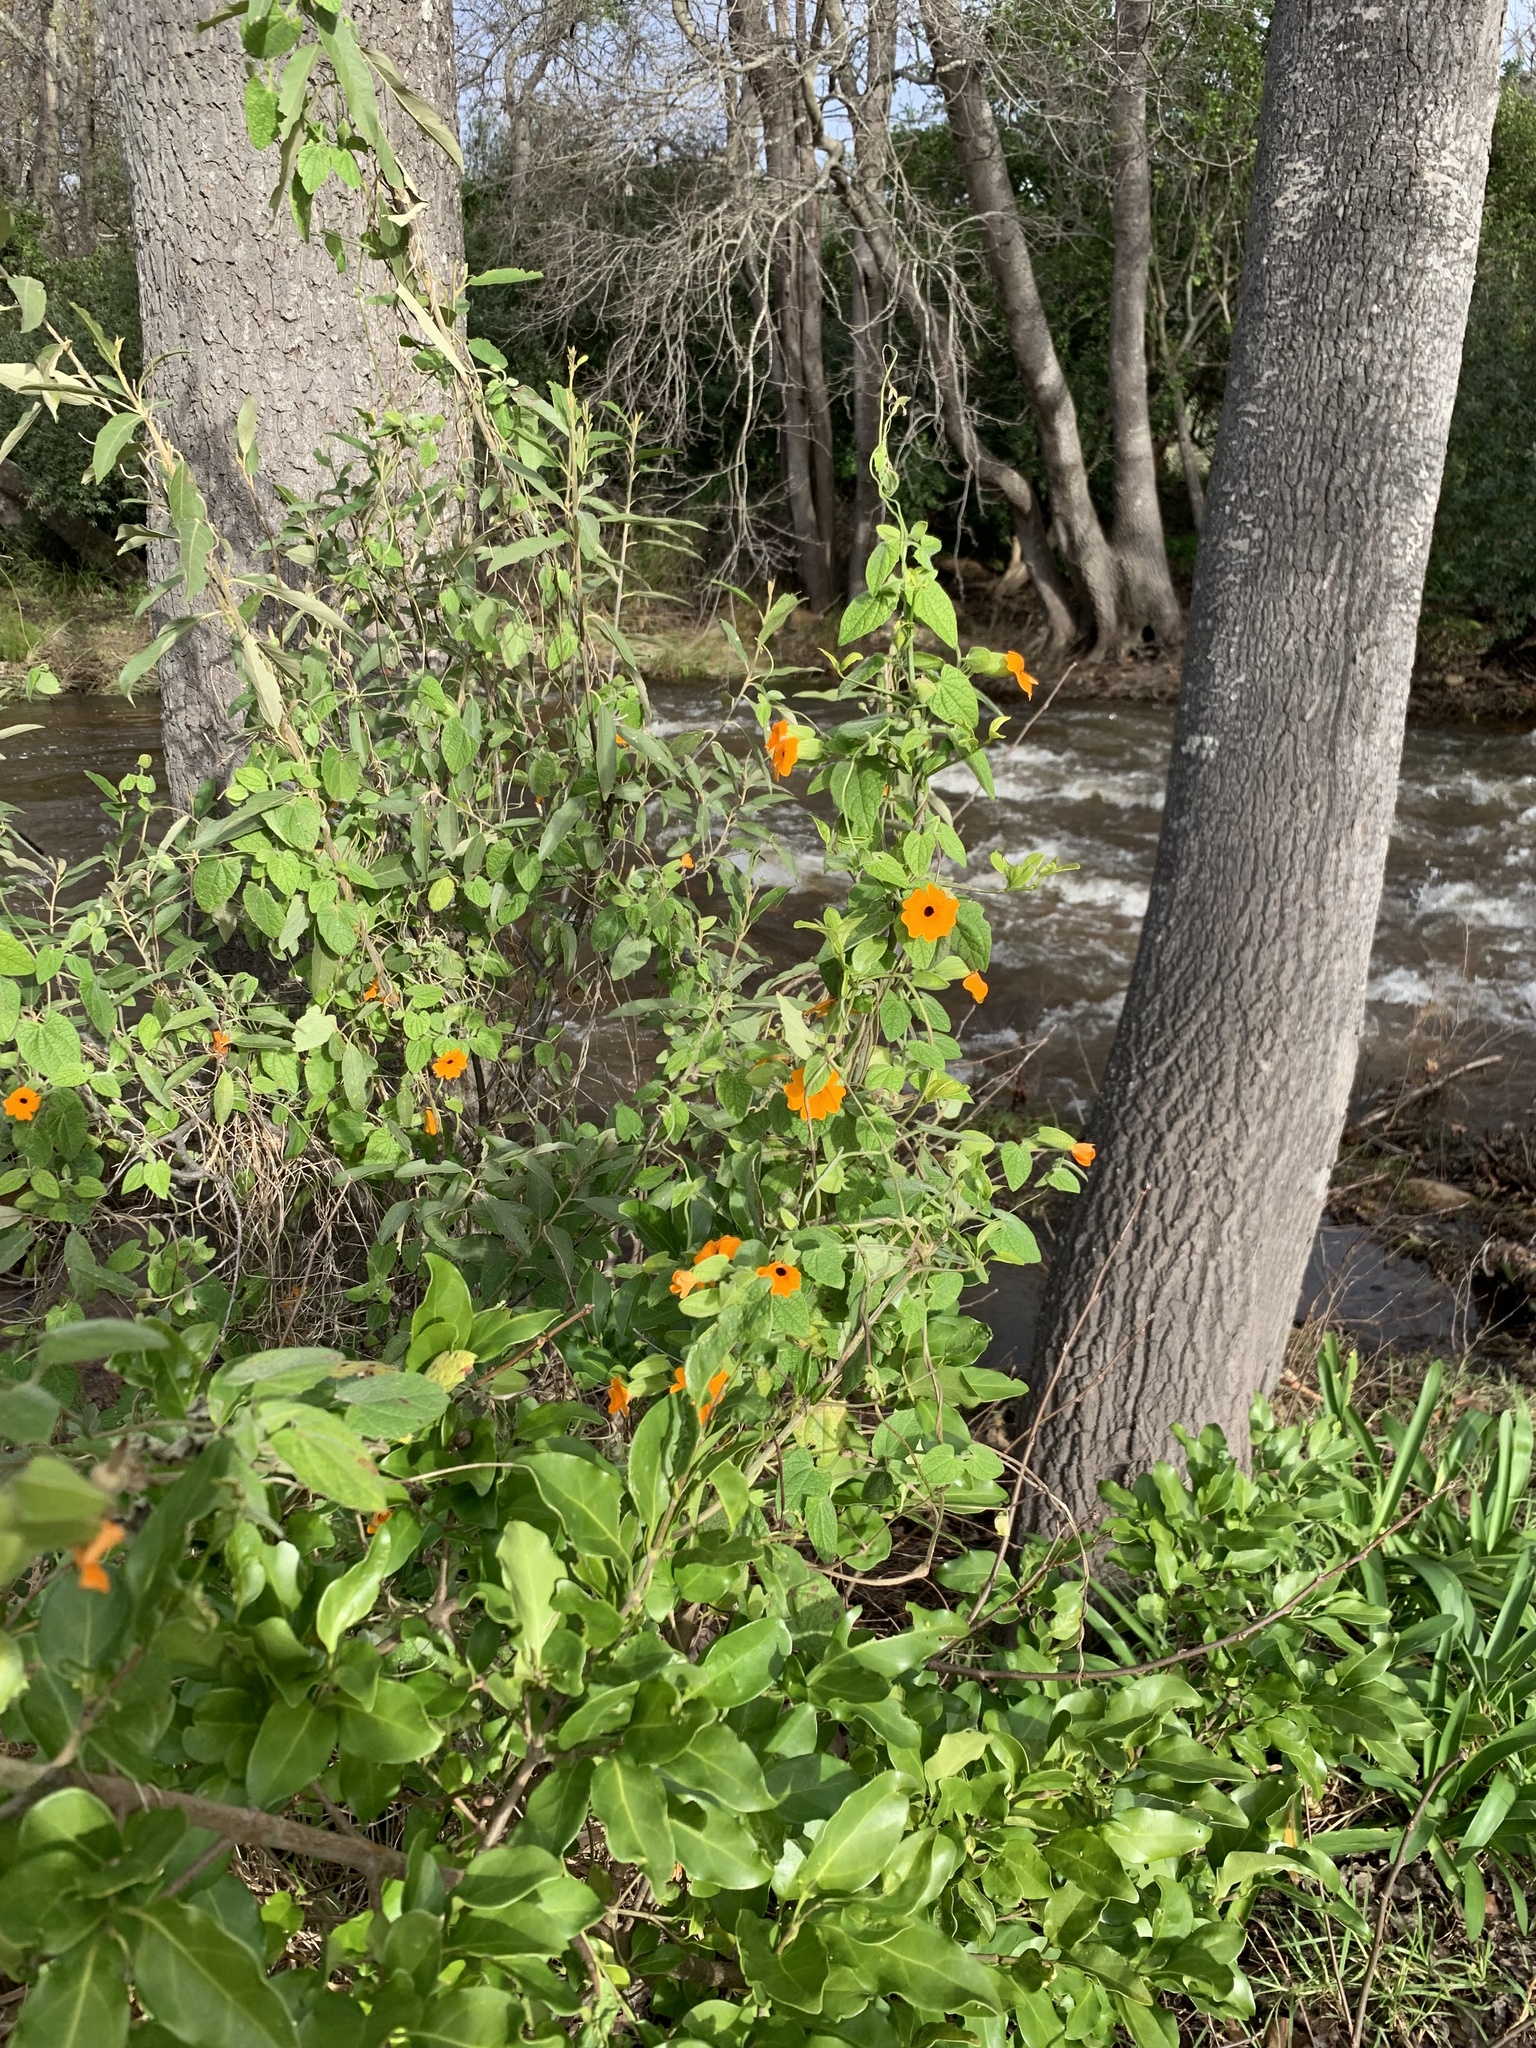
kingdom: Plantae
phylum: Tracheophyta
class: Magnoliopsida
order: Lamiales
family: Acanthaceae
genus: Thunbergia
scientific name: Thunbergia alata
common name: Blackeyed susan vine
